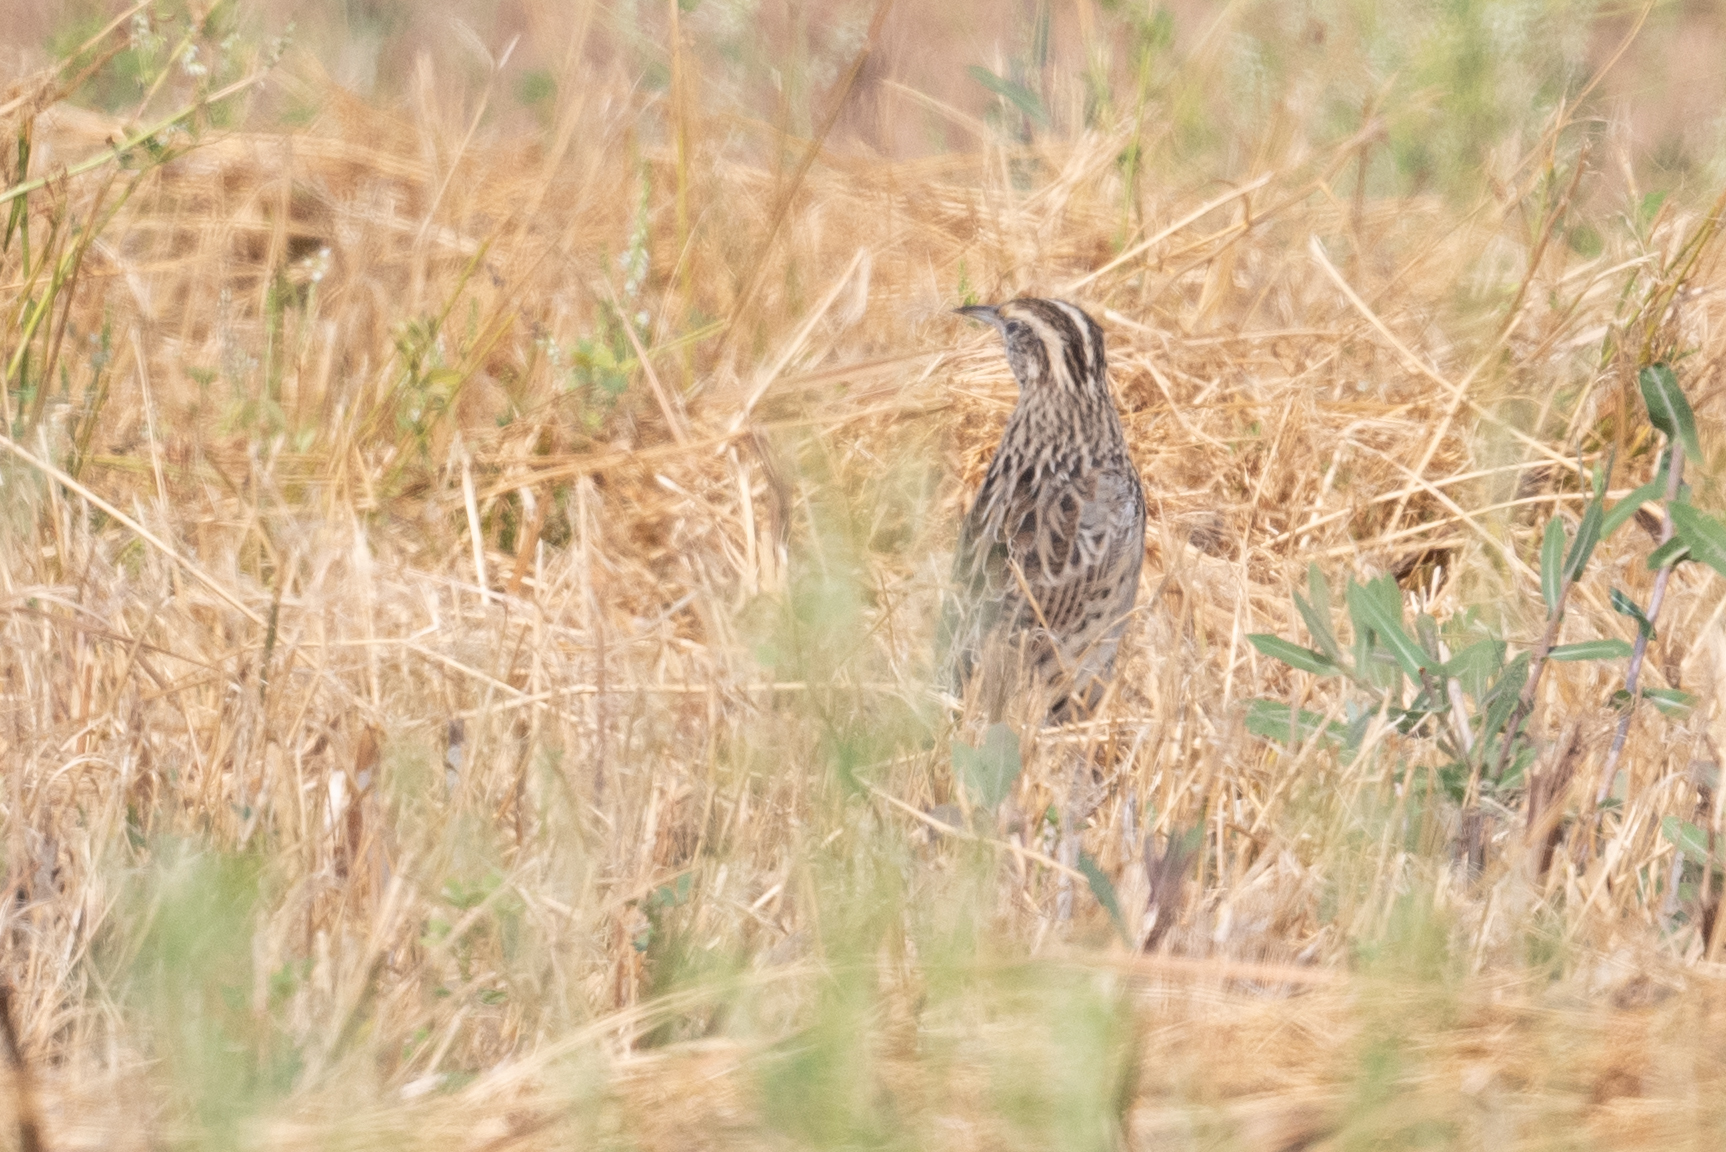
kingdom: Animalia
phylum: Chordata
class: Aves
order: Passeriformes
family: Icteridae
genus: Sturnella
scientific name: Sturnella neglecta
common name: Western meadowlark
